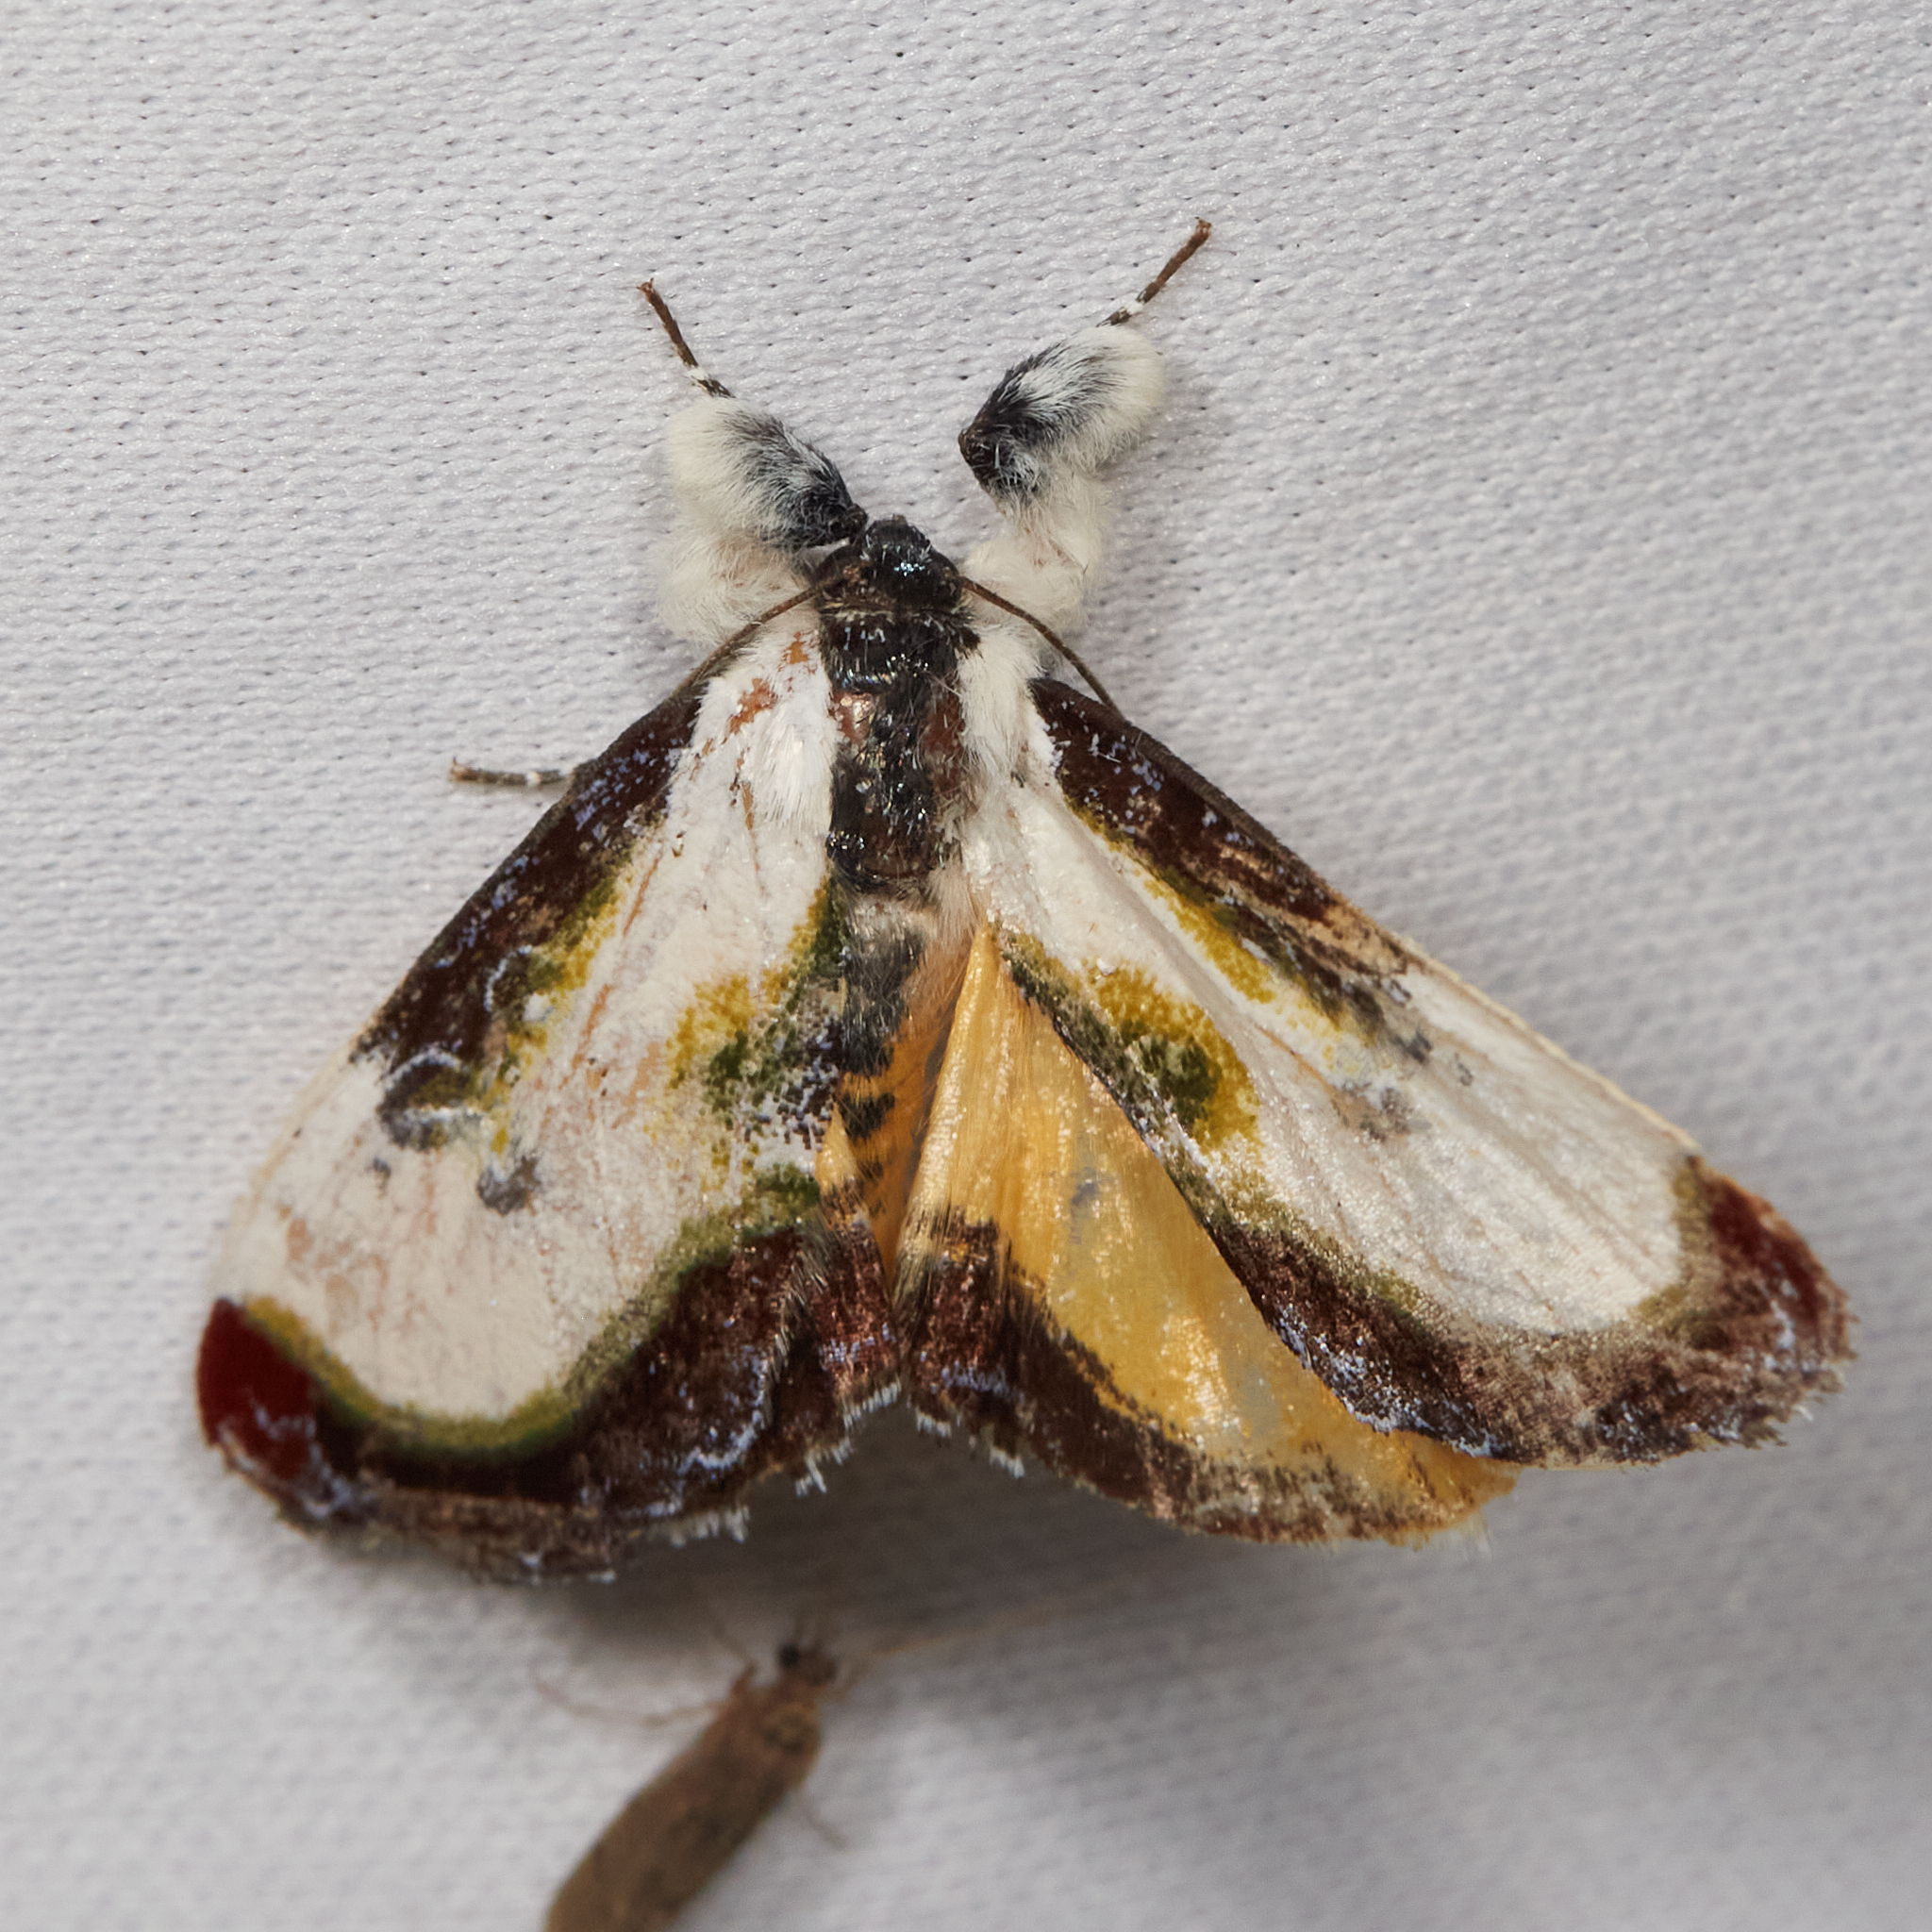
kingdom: Animalia
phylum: Arthropoda
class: Insecta
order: Lepidoptera
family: Noctuidae
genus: Eudryas
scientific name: Eudryas grata
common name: Beautiful wood-nymph
